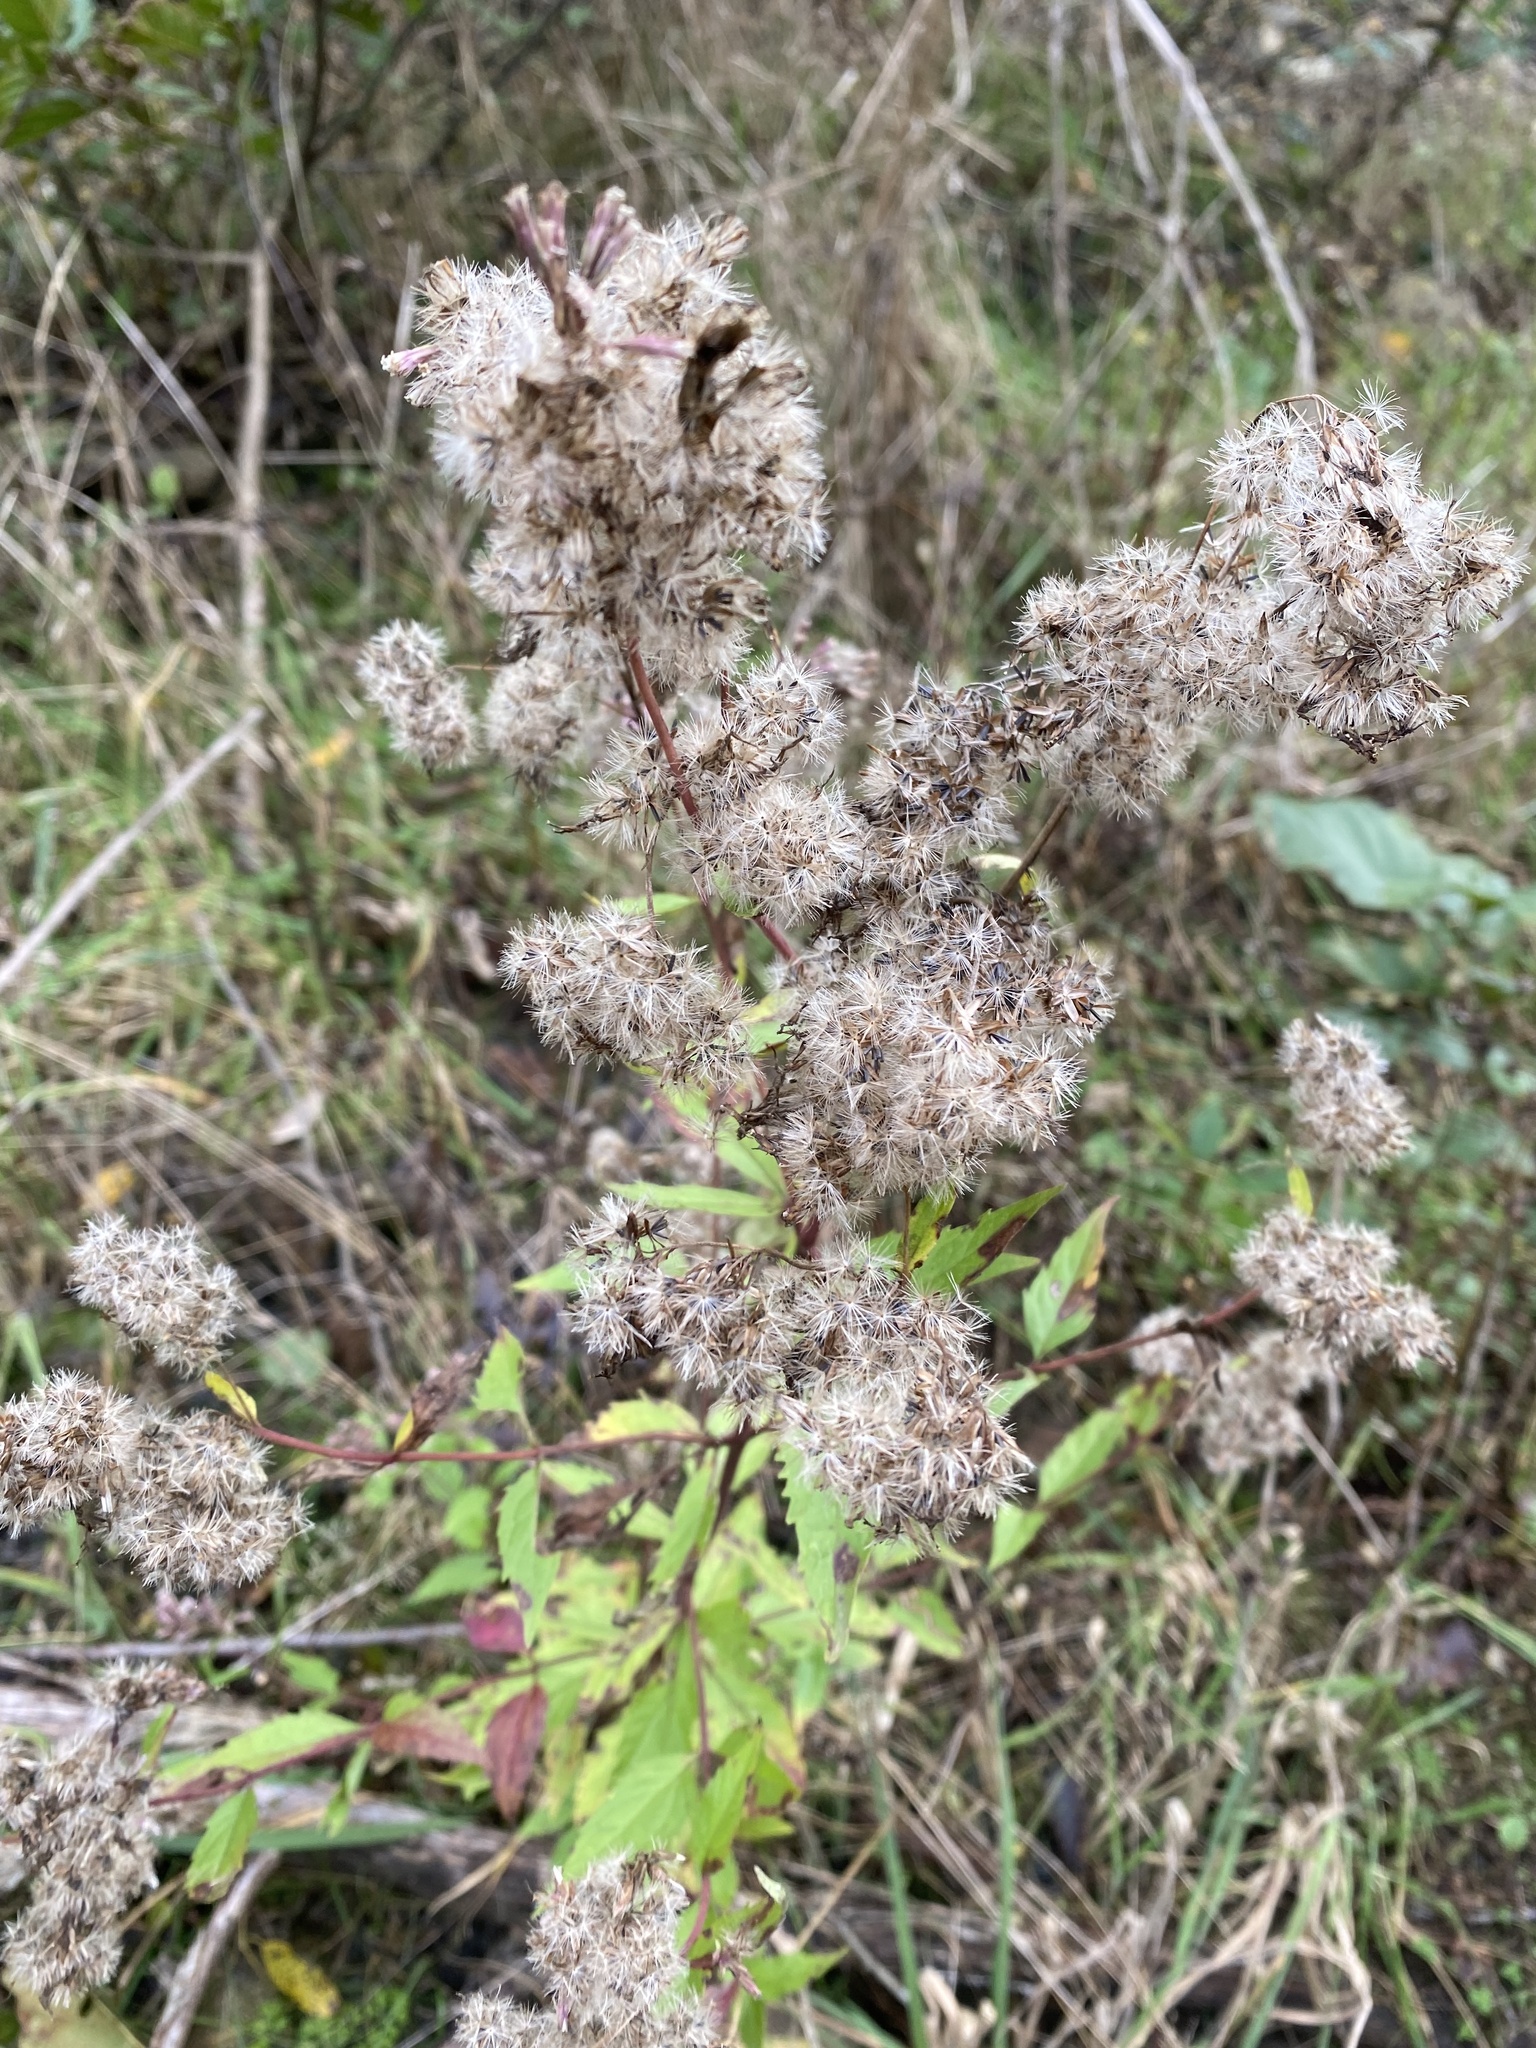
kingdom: Plantae
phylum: Tracheophyta
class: Magnoliopsida
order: Asterales
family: Asteraceae
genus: Eupatorium
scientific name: Eupatorium cannabinum
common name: Hemp-agrimony
